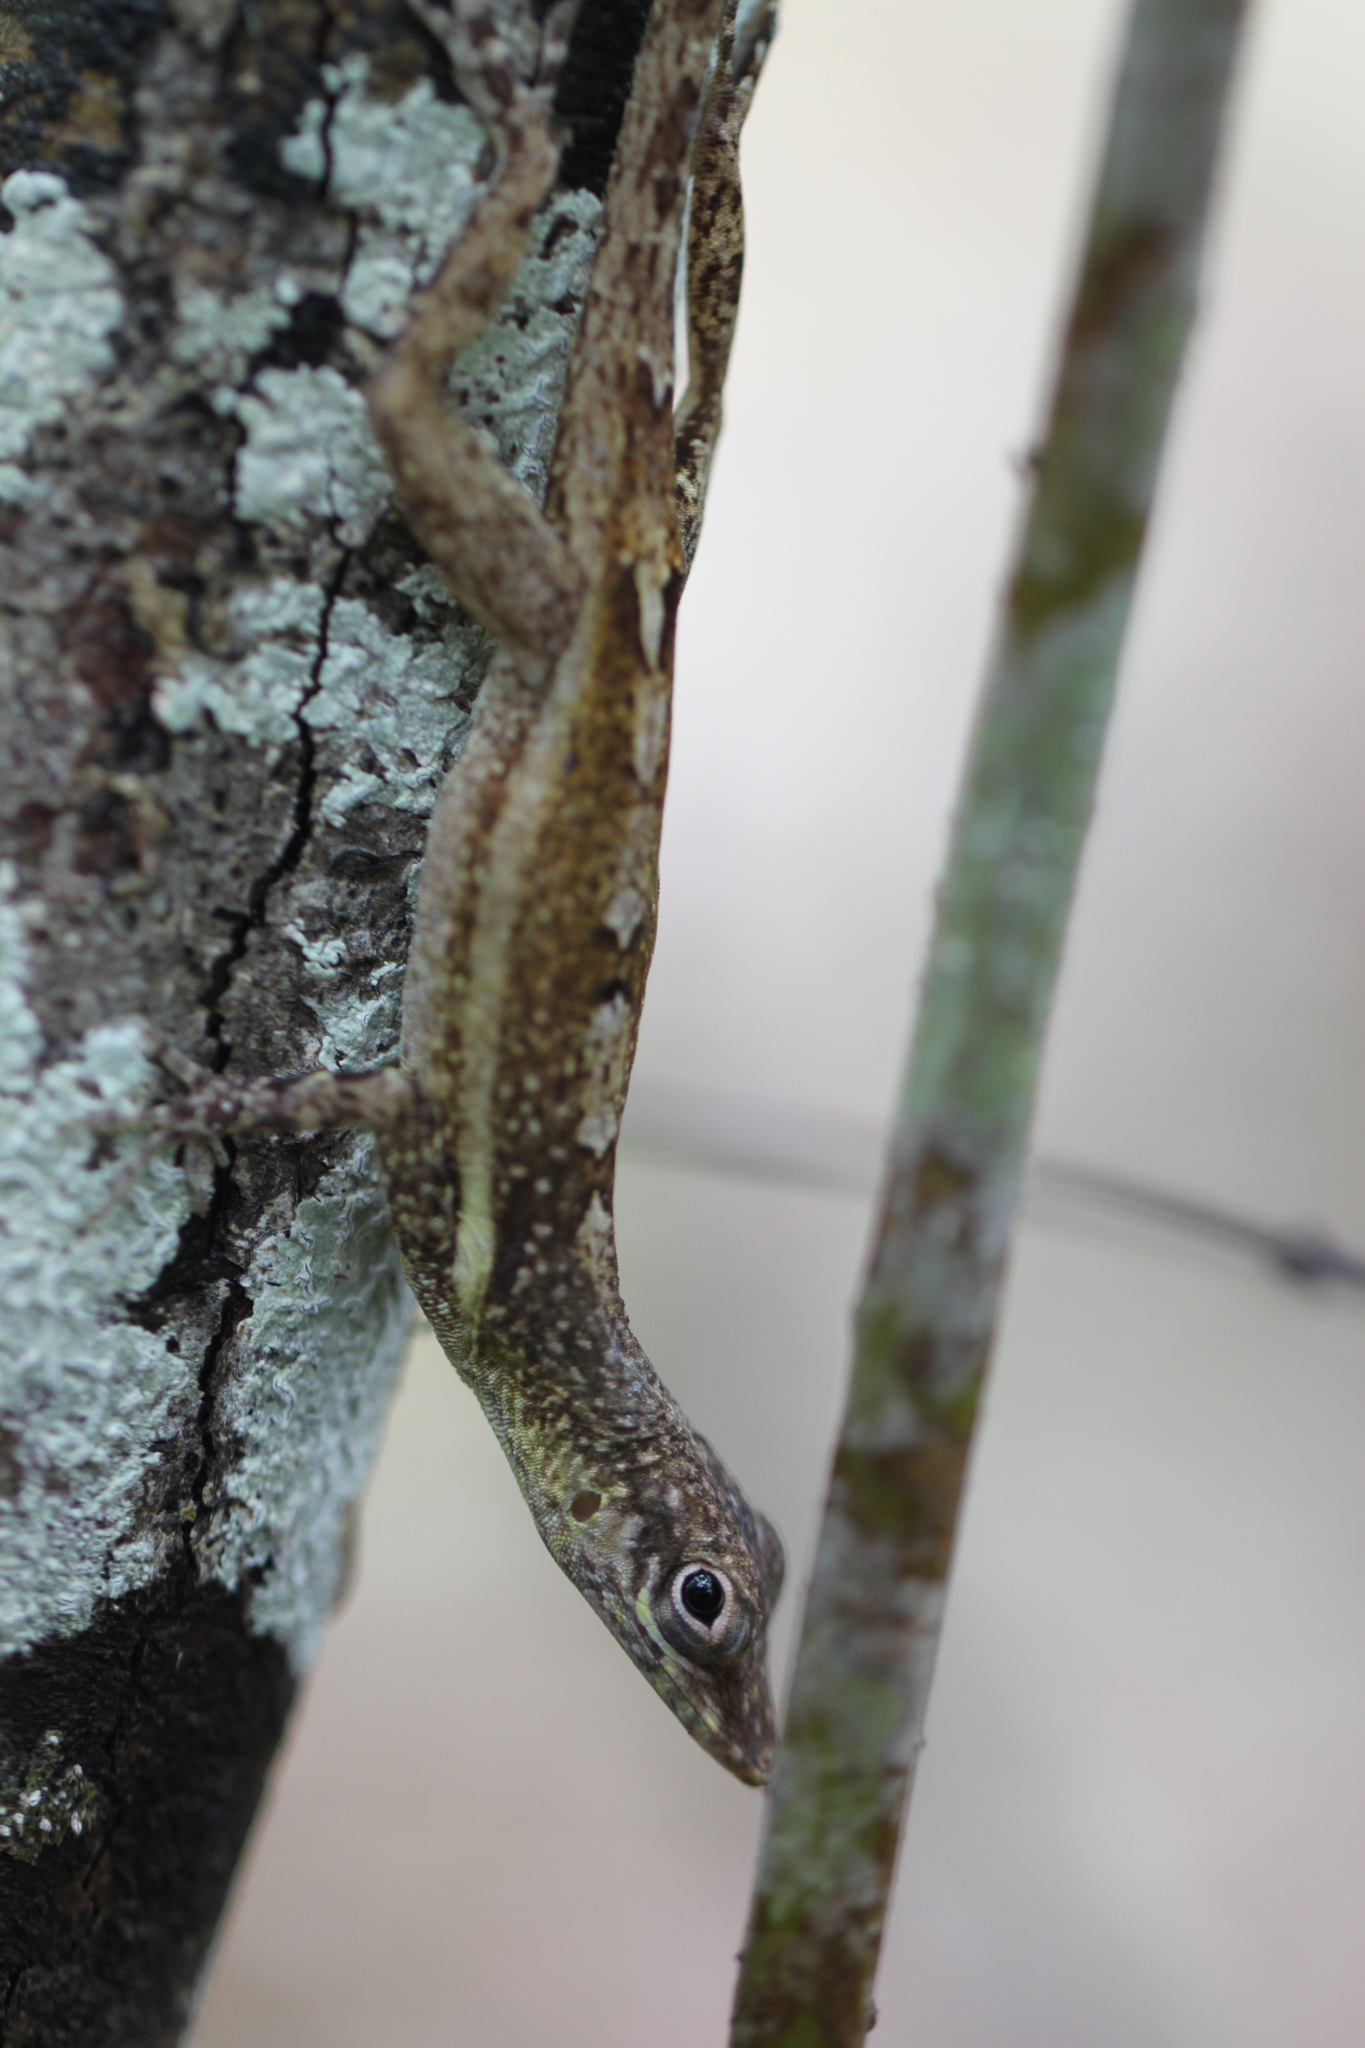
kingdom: Animalia
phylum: Chordata
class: Squamata
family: Dactyloidae
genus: Anolis
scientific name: Anolis conspersus
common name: Grand cayman anole
